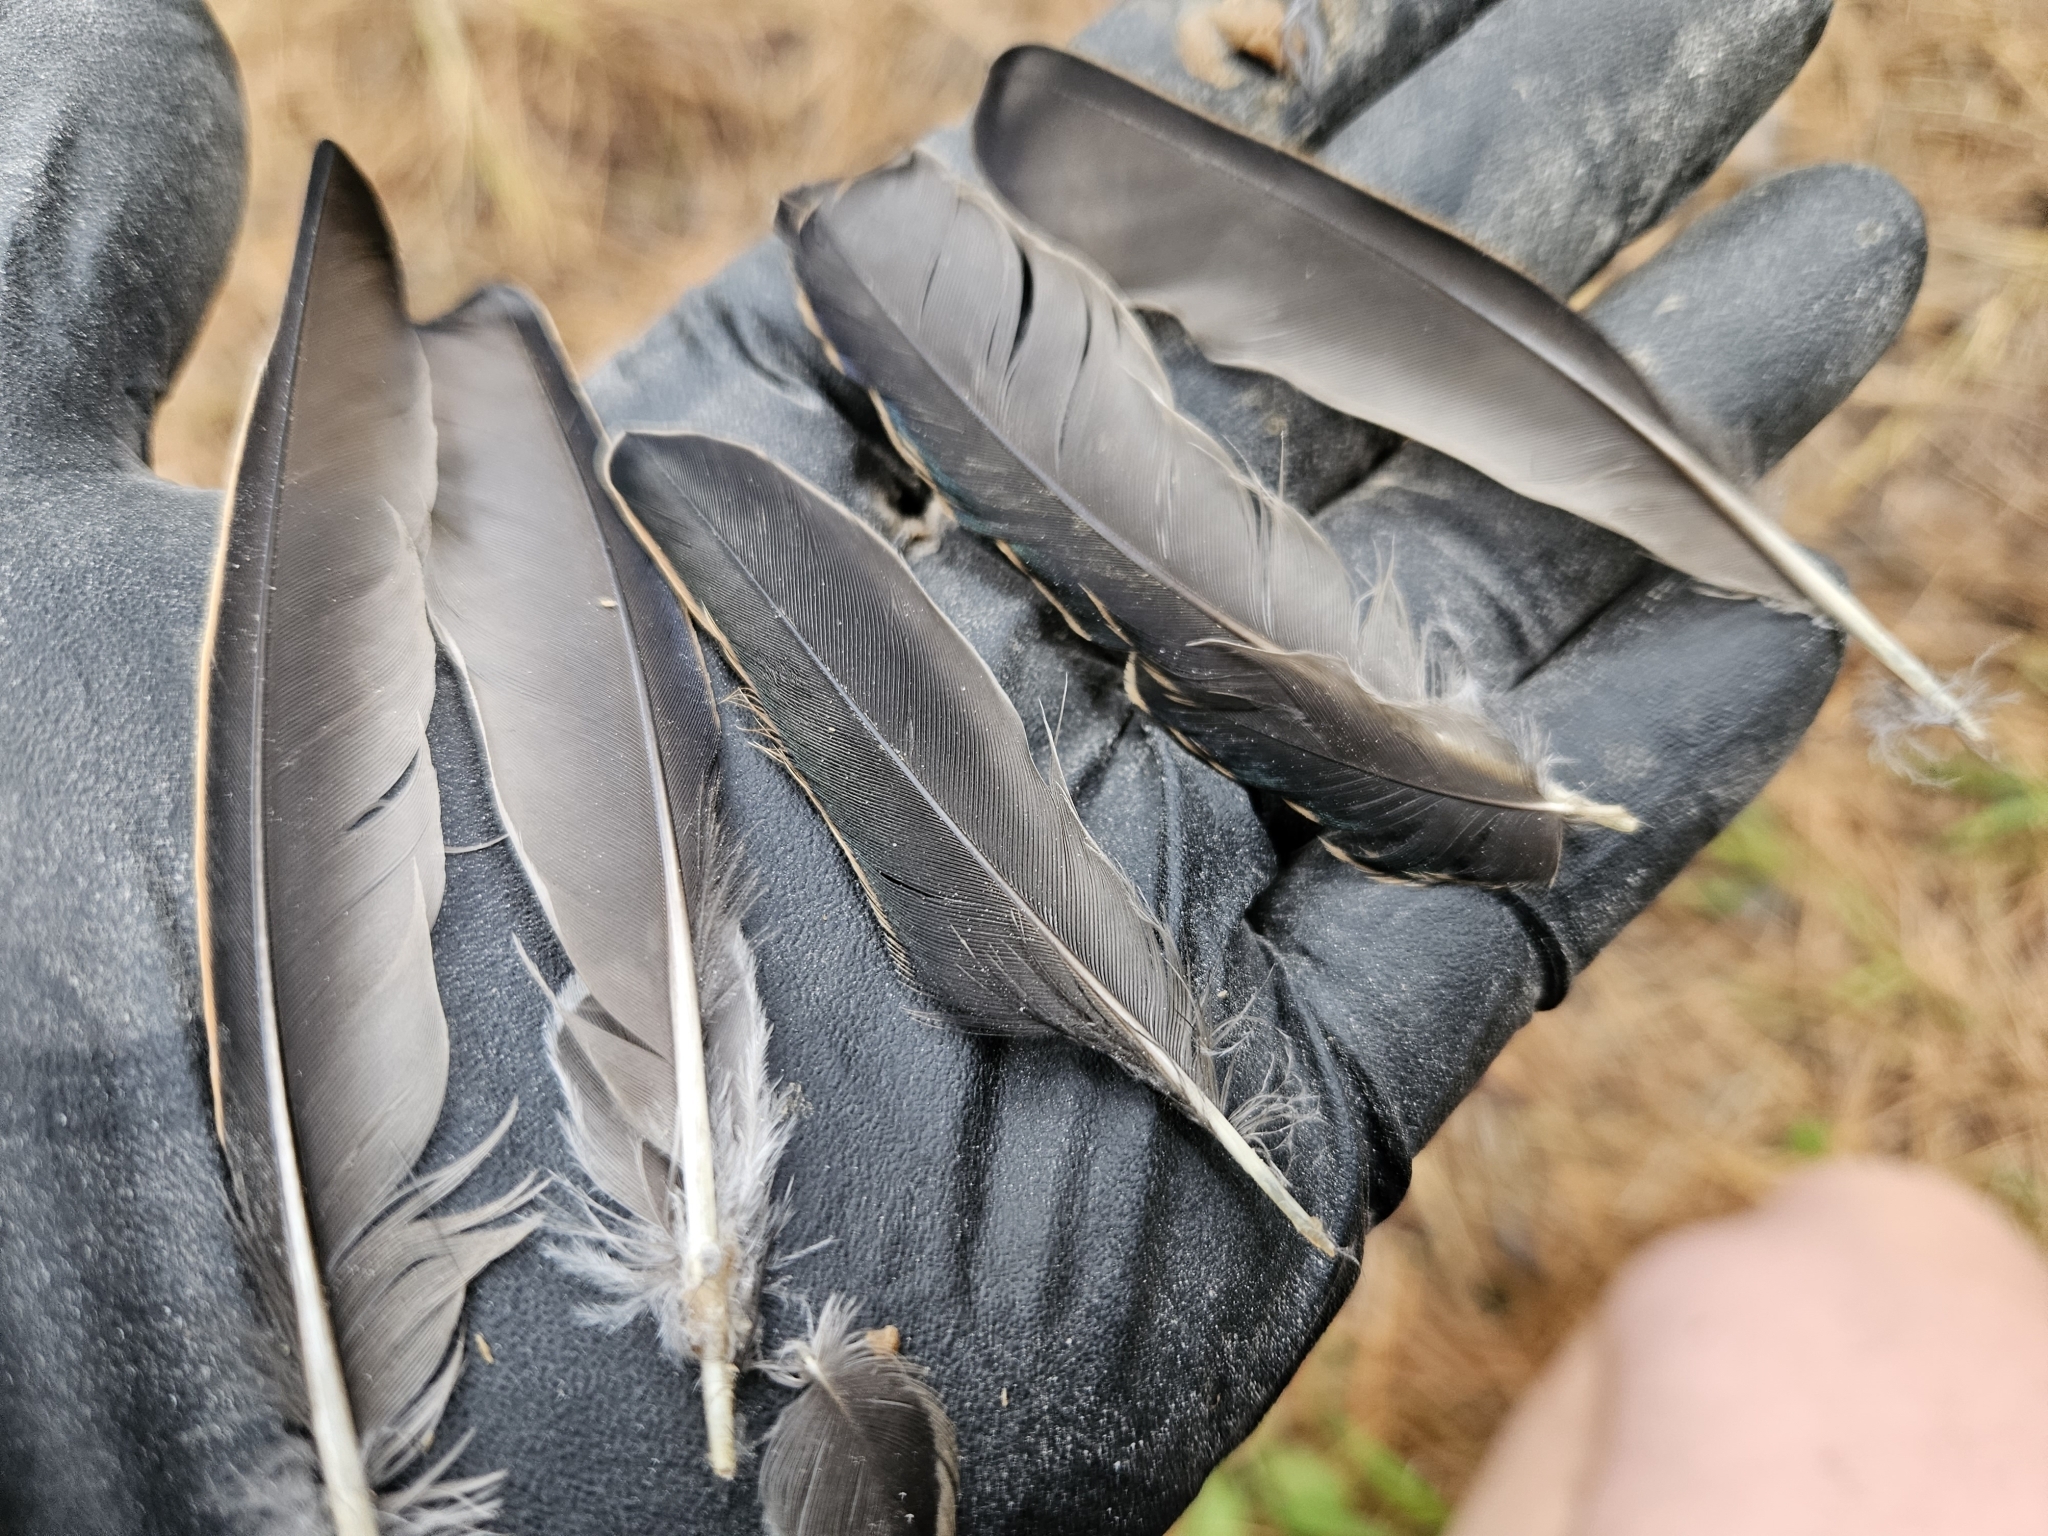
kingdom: Animalia
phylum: Chordata
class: Aves
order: Passeriformes
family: Sturnidae
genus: Sturnus
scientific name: Sturnus vulgaris
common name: Common starling
